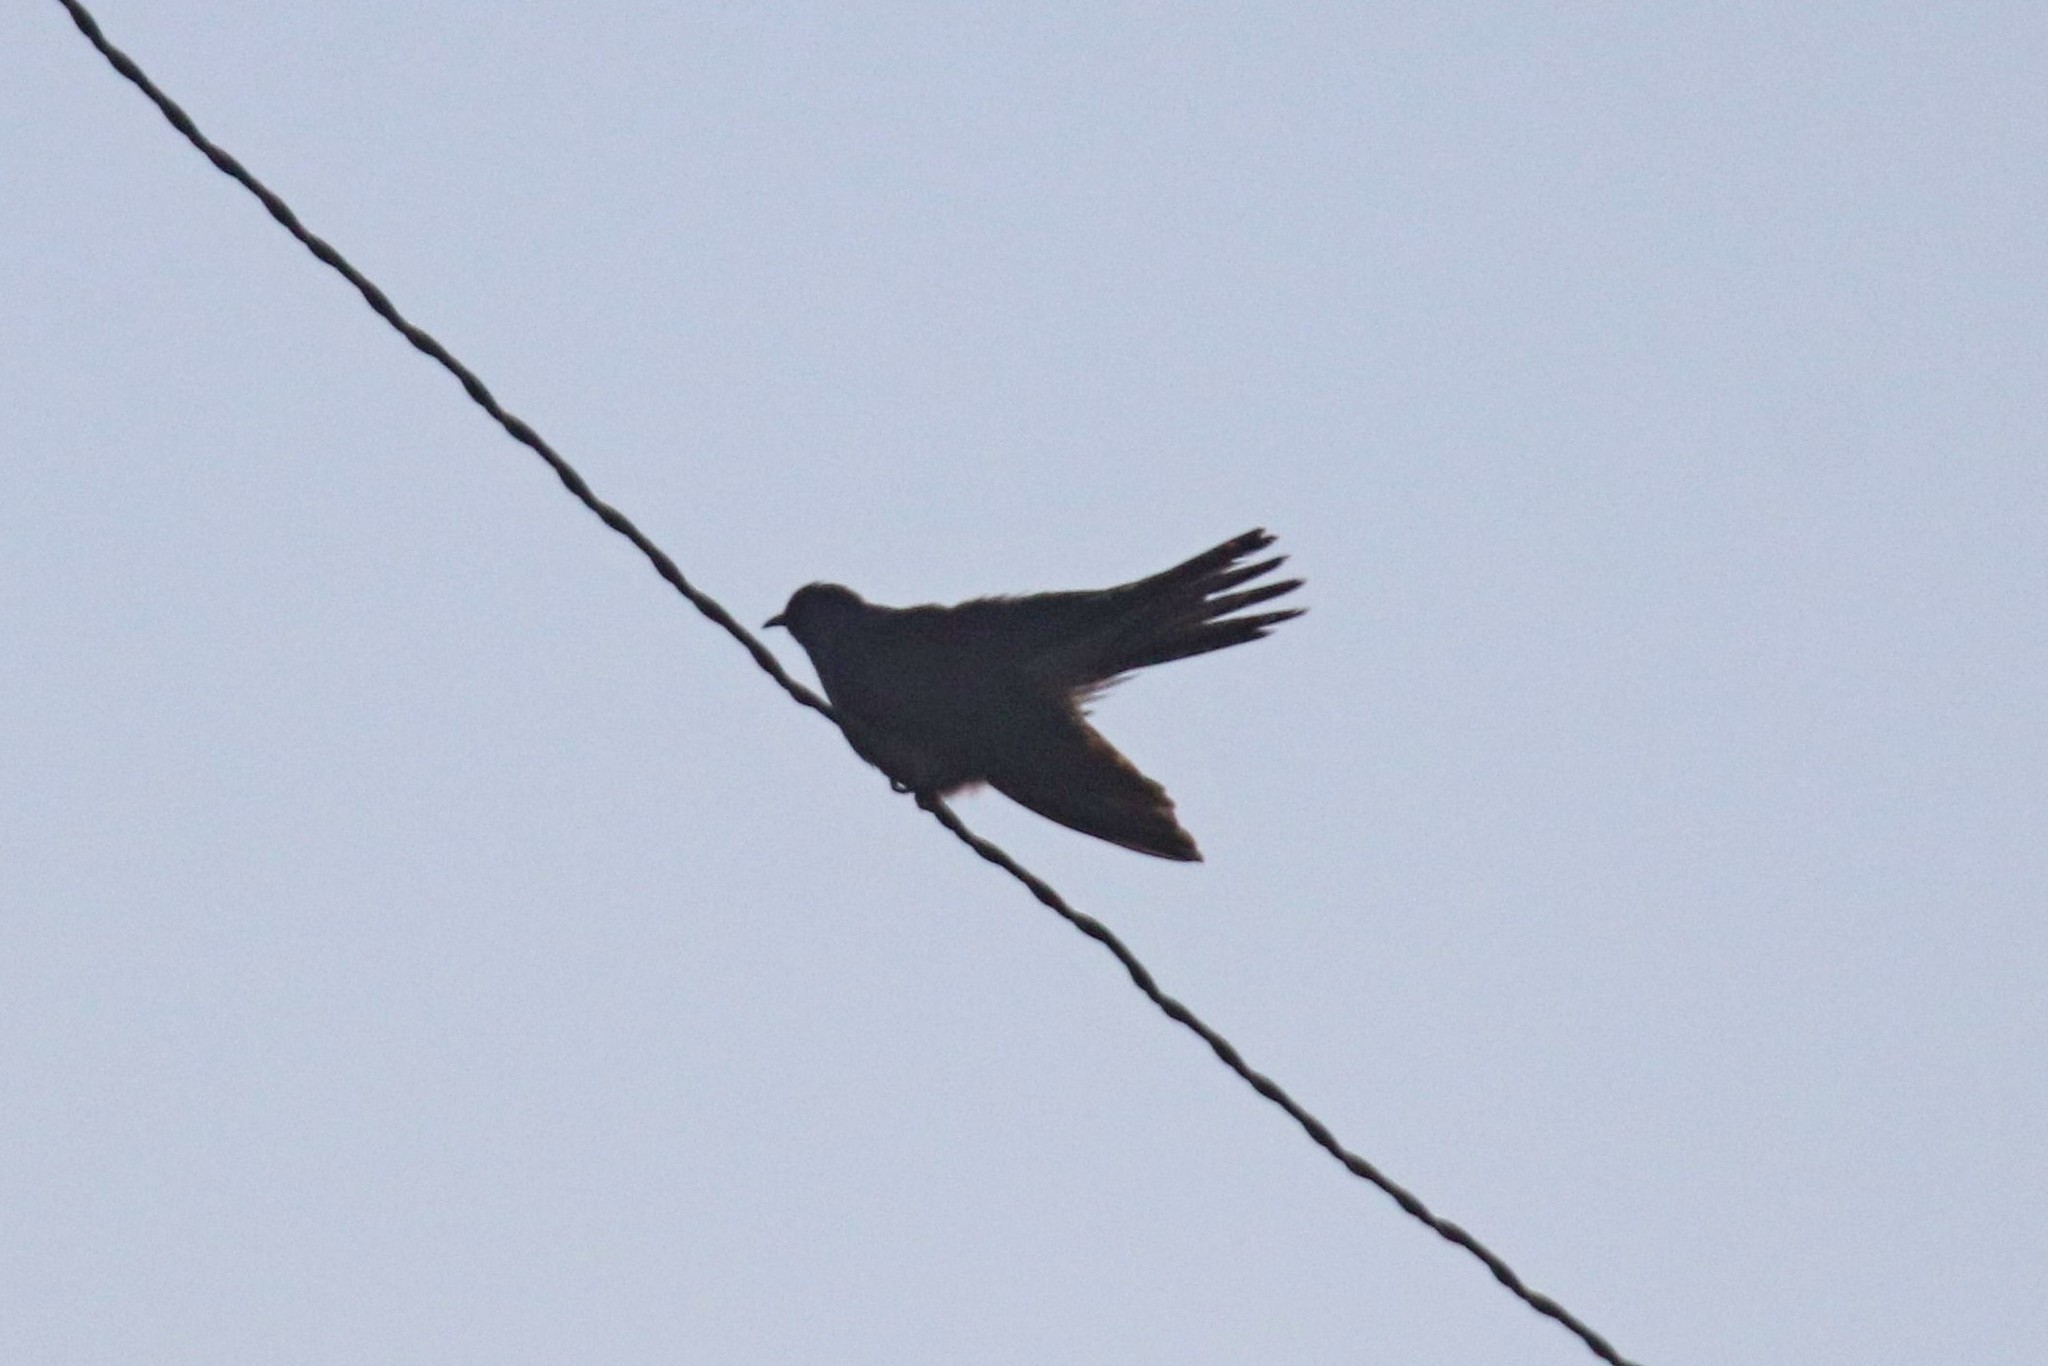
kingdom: Animalia
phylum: Chordata
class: Aves
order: Cuculiformes
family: Cuculidae
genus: Cuculus
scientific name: Cuculus canorus
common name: Common cuckoo
